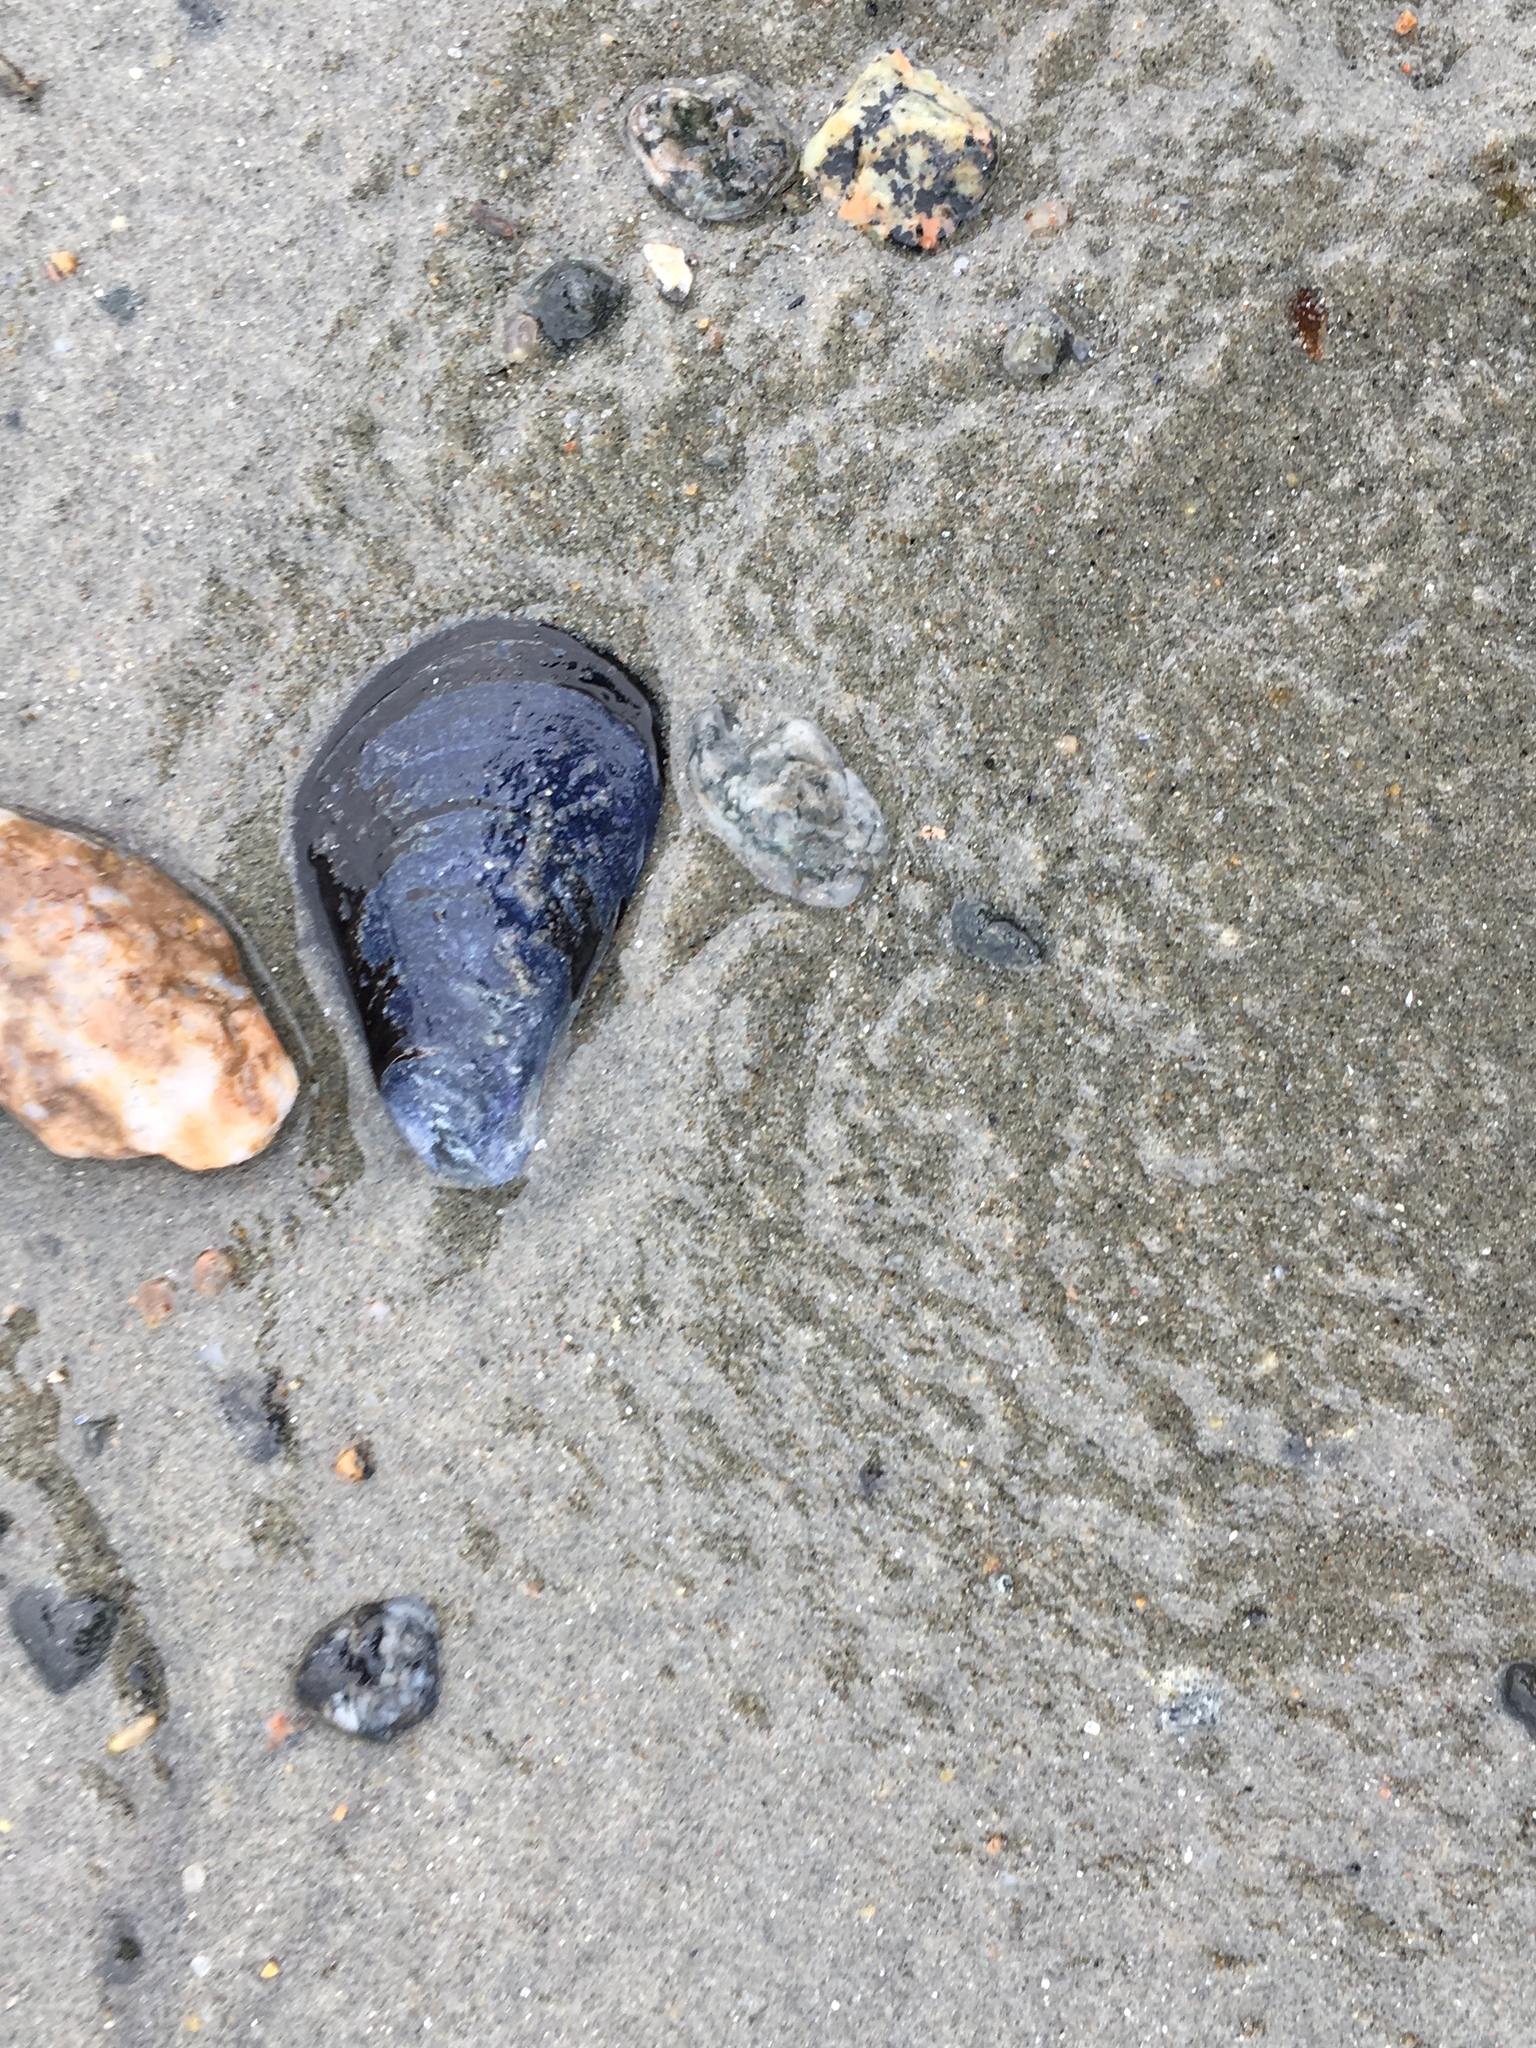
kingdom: Animalia
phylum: Mollusca
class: Bivalvia
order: Mytilida
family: Mytilidae
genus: Mytilus
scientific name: Mytilus edulis
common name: Blue mussel
